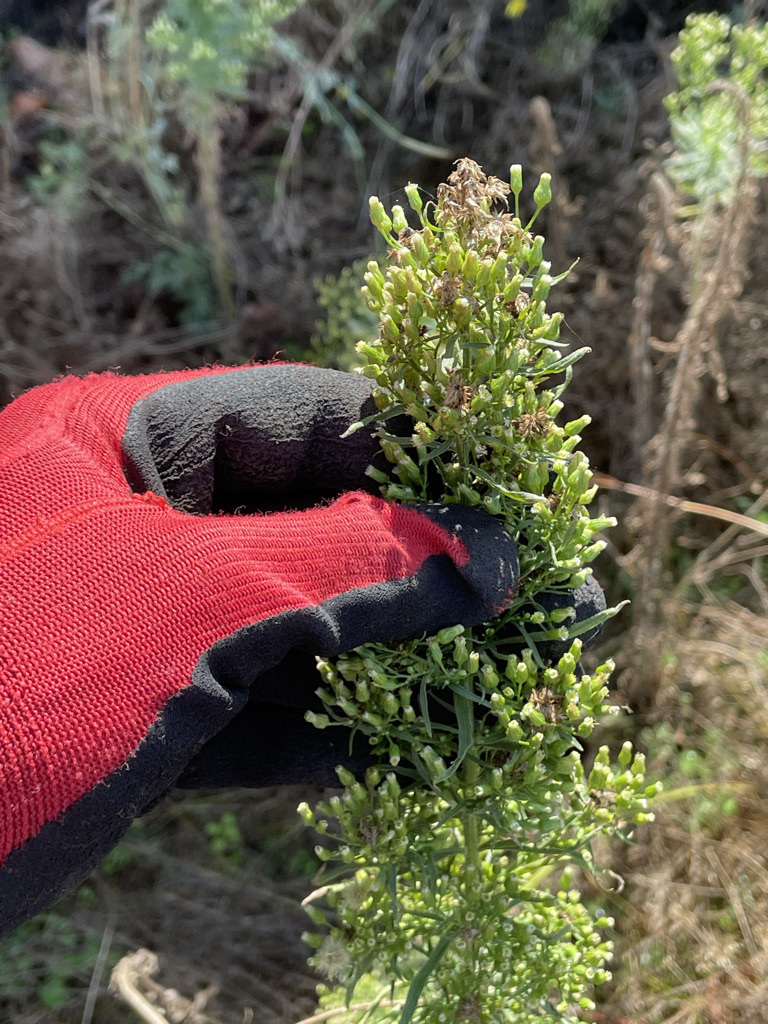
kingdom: Plantae
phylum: Tracheophyta
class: Magnoliopsida
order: Asterales
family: Asteraceae
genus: Erigeron
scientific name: Erigeron canadensis
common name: Canadian fleabane
